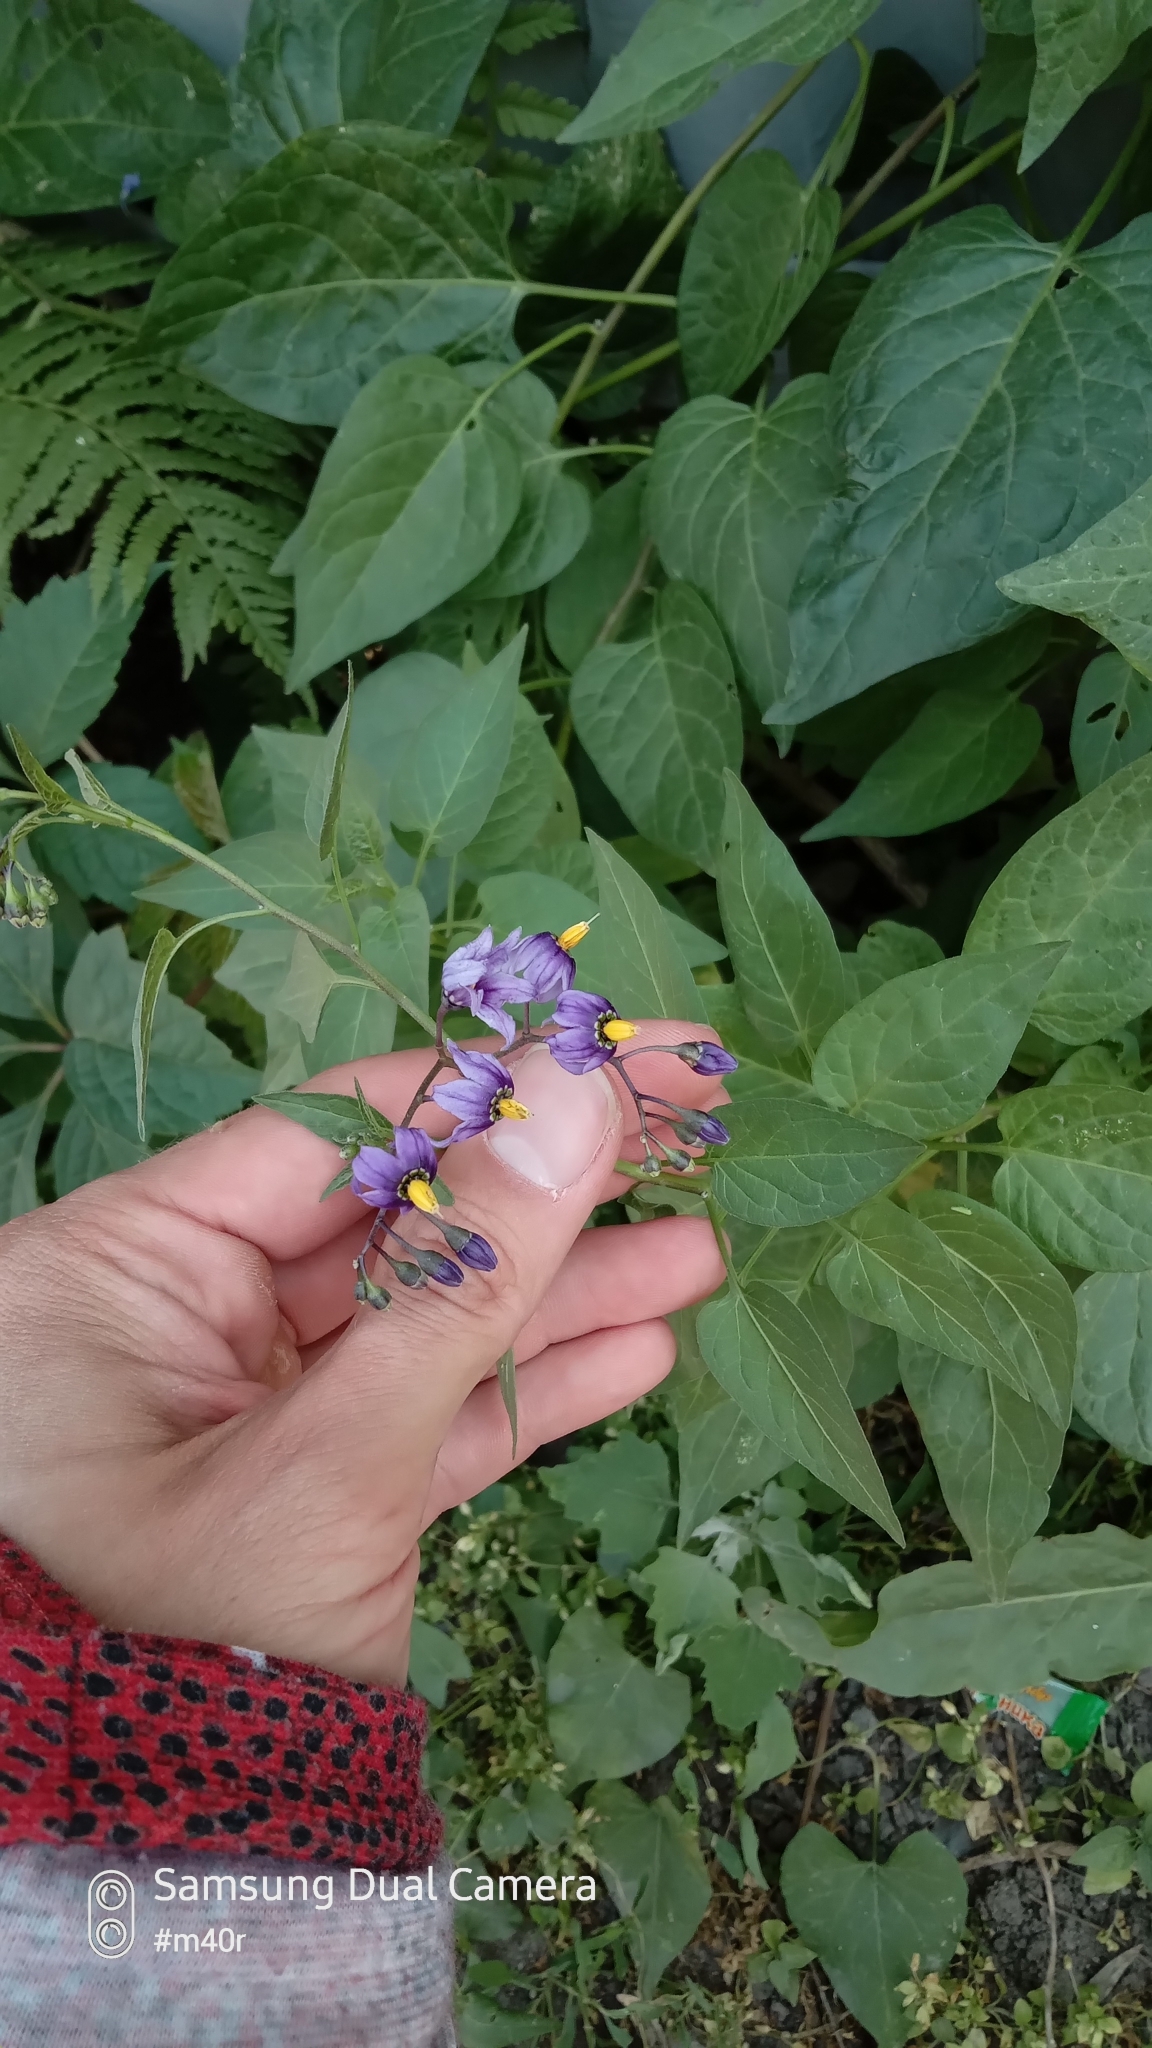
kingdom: Plantae
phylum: Tracheophyta
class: Magnoliopsida
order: Solanales
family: Solanaceae
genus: Solanum
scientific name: Solanum dulcamara
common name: Climbing nightshade
